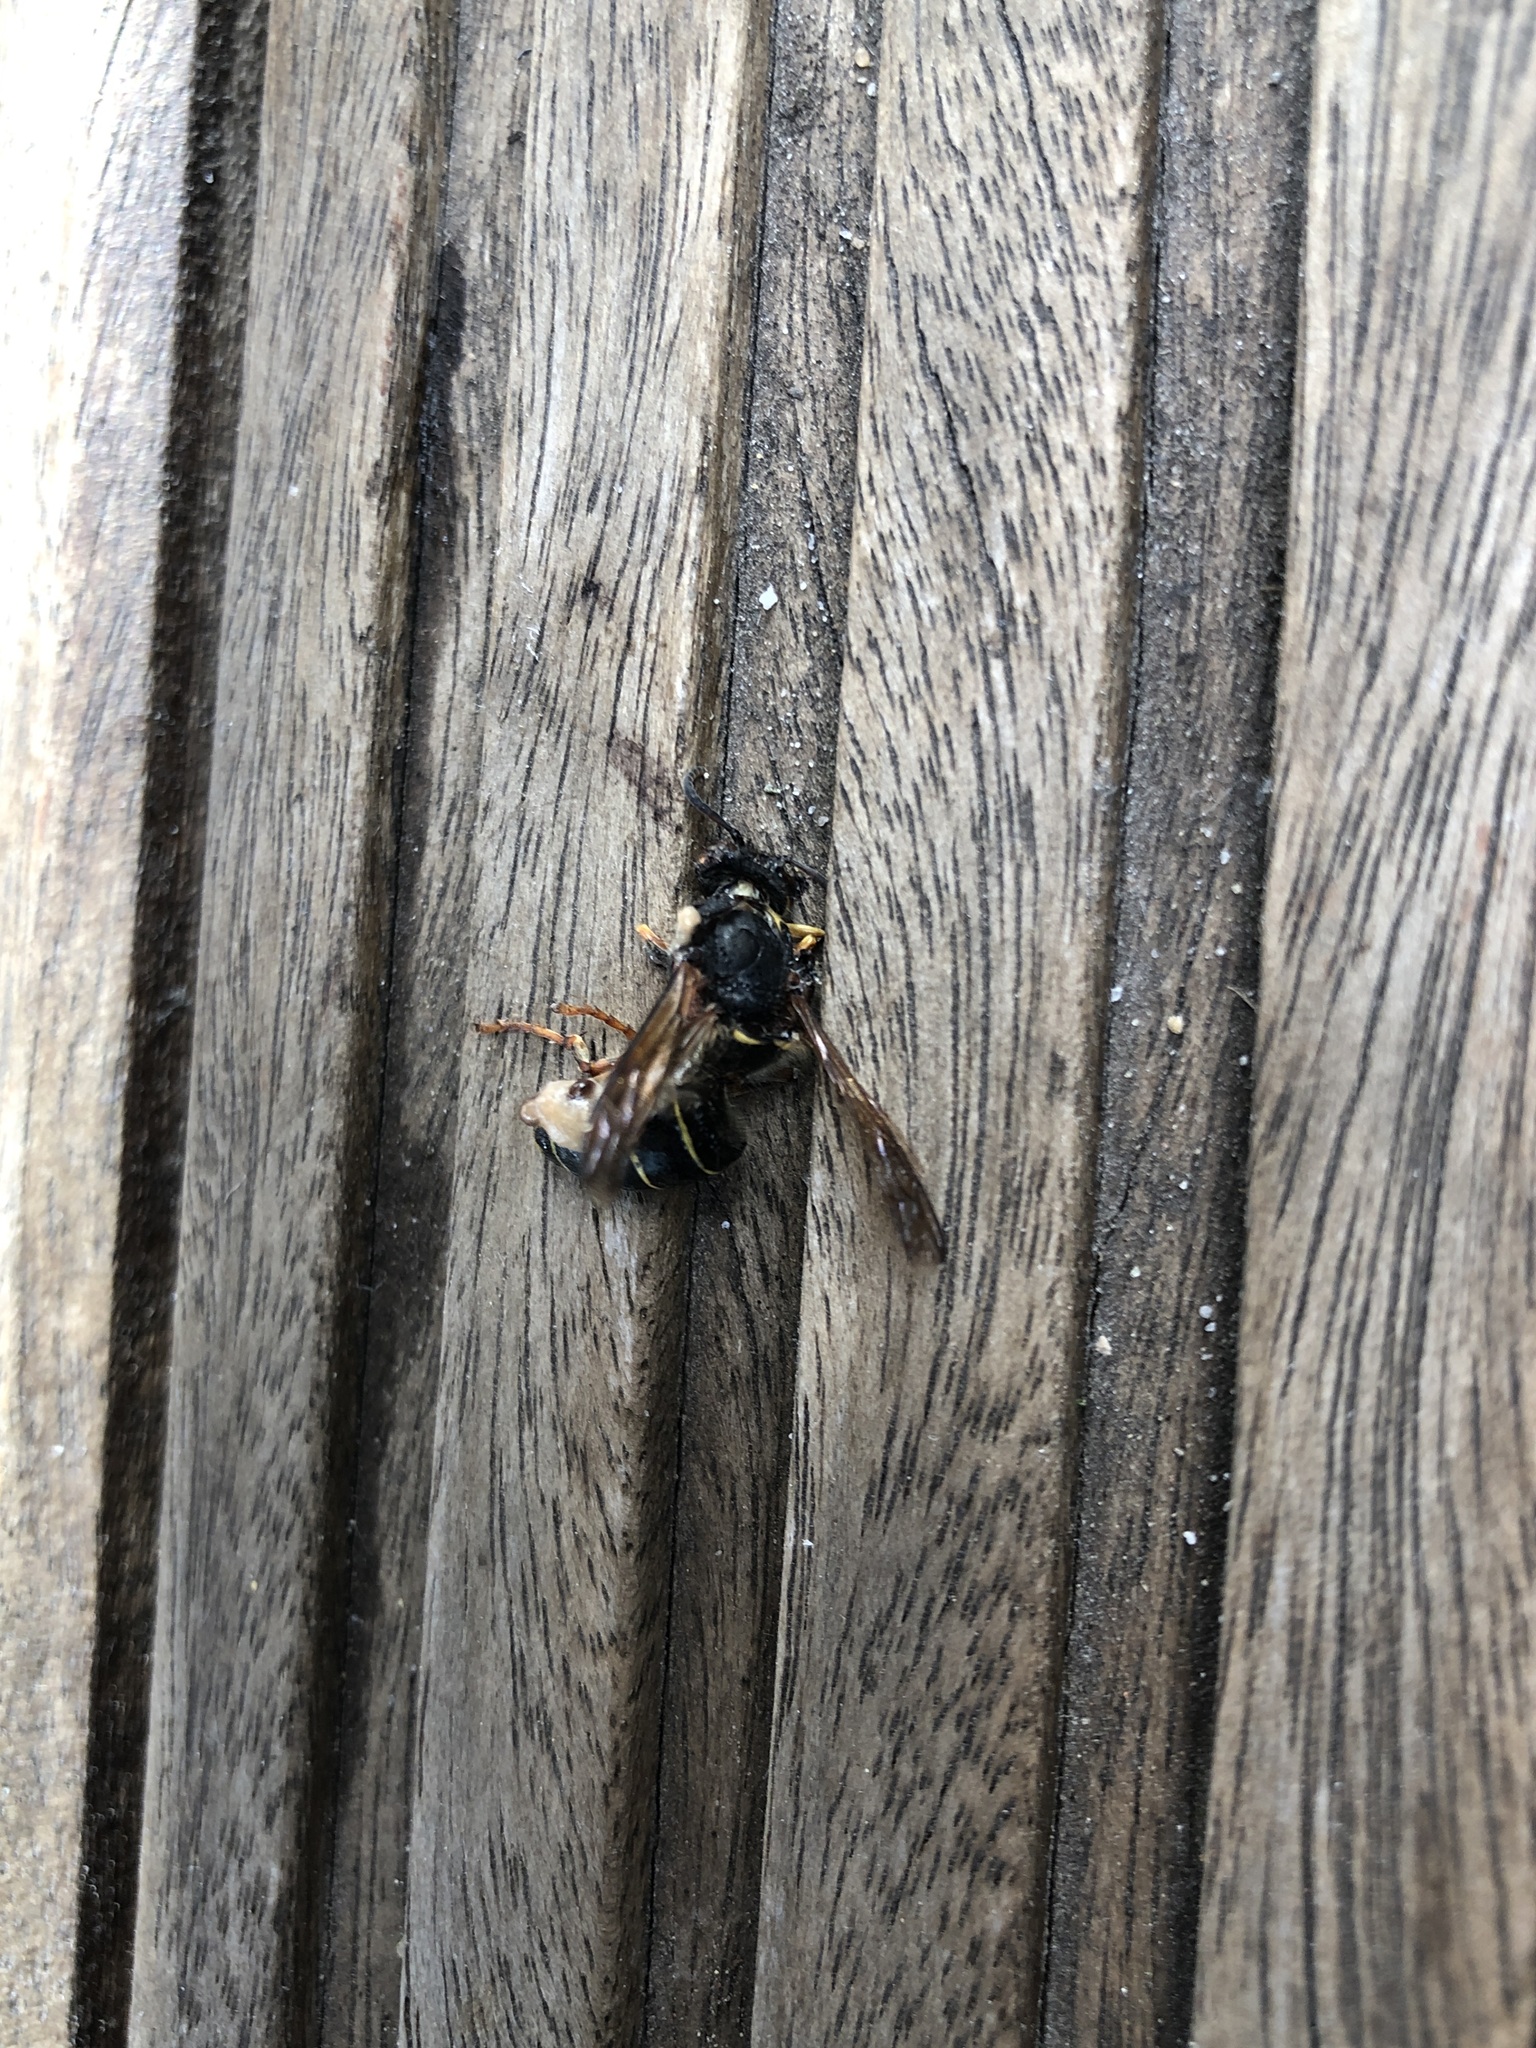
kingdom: Animalia
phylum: Arthropoda
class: Insecta
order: Hymenoptera
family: Vespidae
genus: Dolichovespula
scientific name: Dolichovespula media
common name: Median wasp
